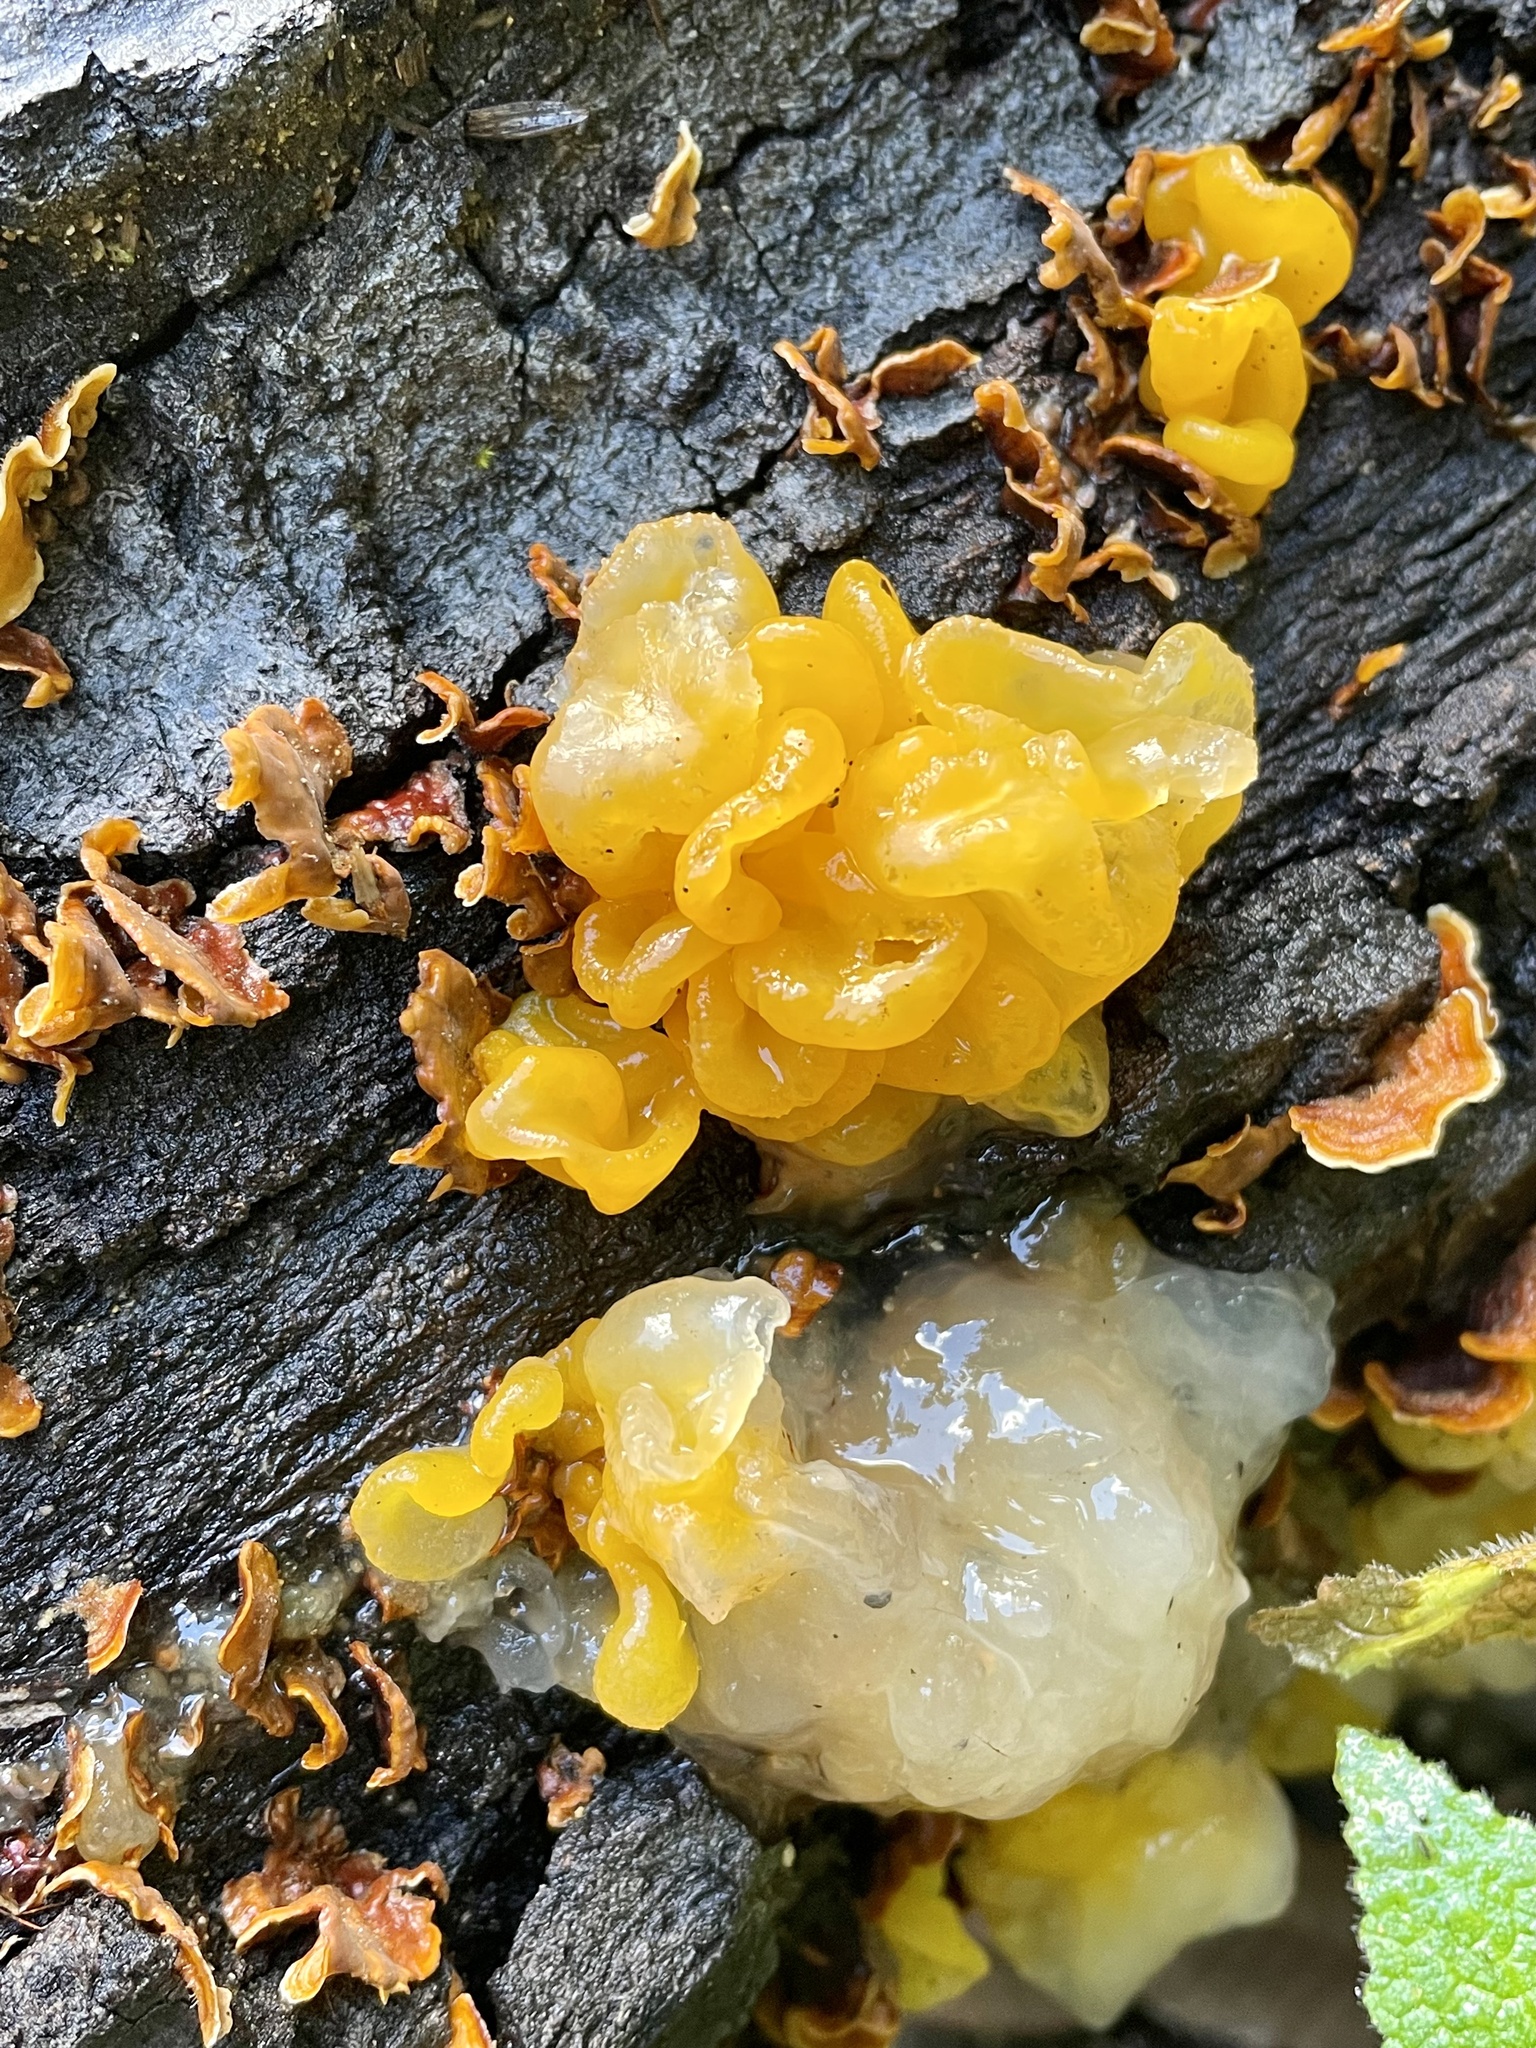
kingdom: Fungi
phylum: Basidiomycota
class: Tremellomycetes
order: Tremellales
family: Naemateliaceae
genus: Naematelia
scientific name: Naematelia aurantia
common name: Golden ear
